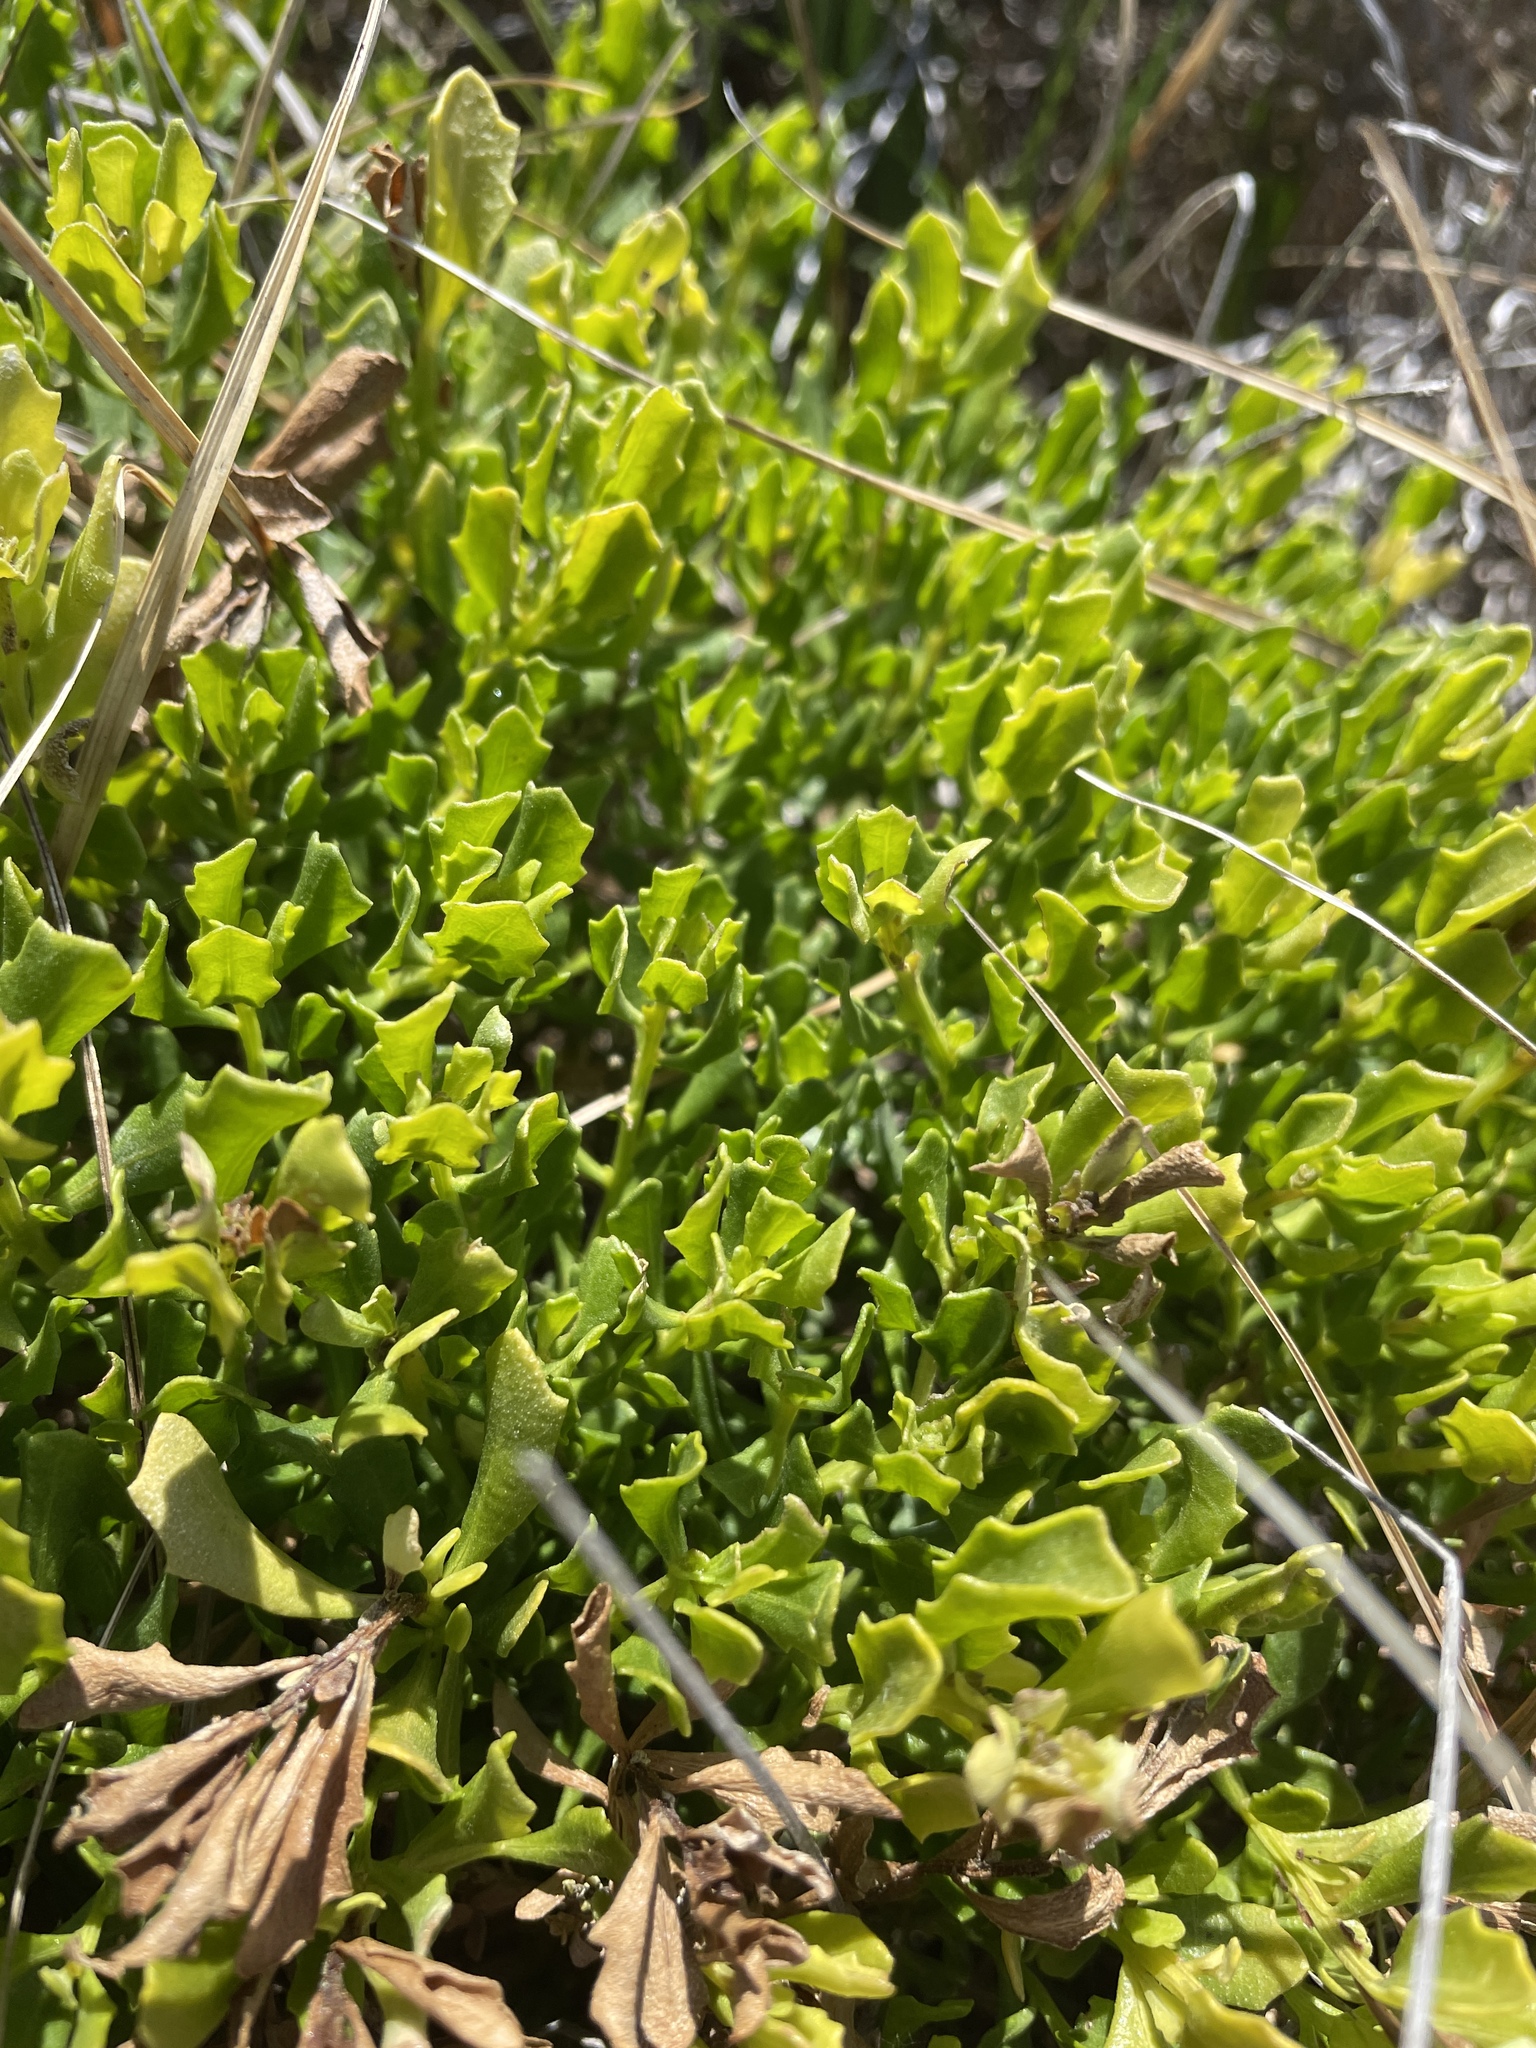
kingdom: Plantae
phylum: Tracheophyta
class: Magnoliopsida
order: Asterales
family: Asteraceae
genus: Baccharis
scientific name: Baccharis pilularis
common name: Coyotebrush
